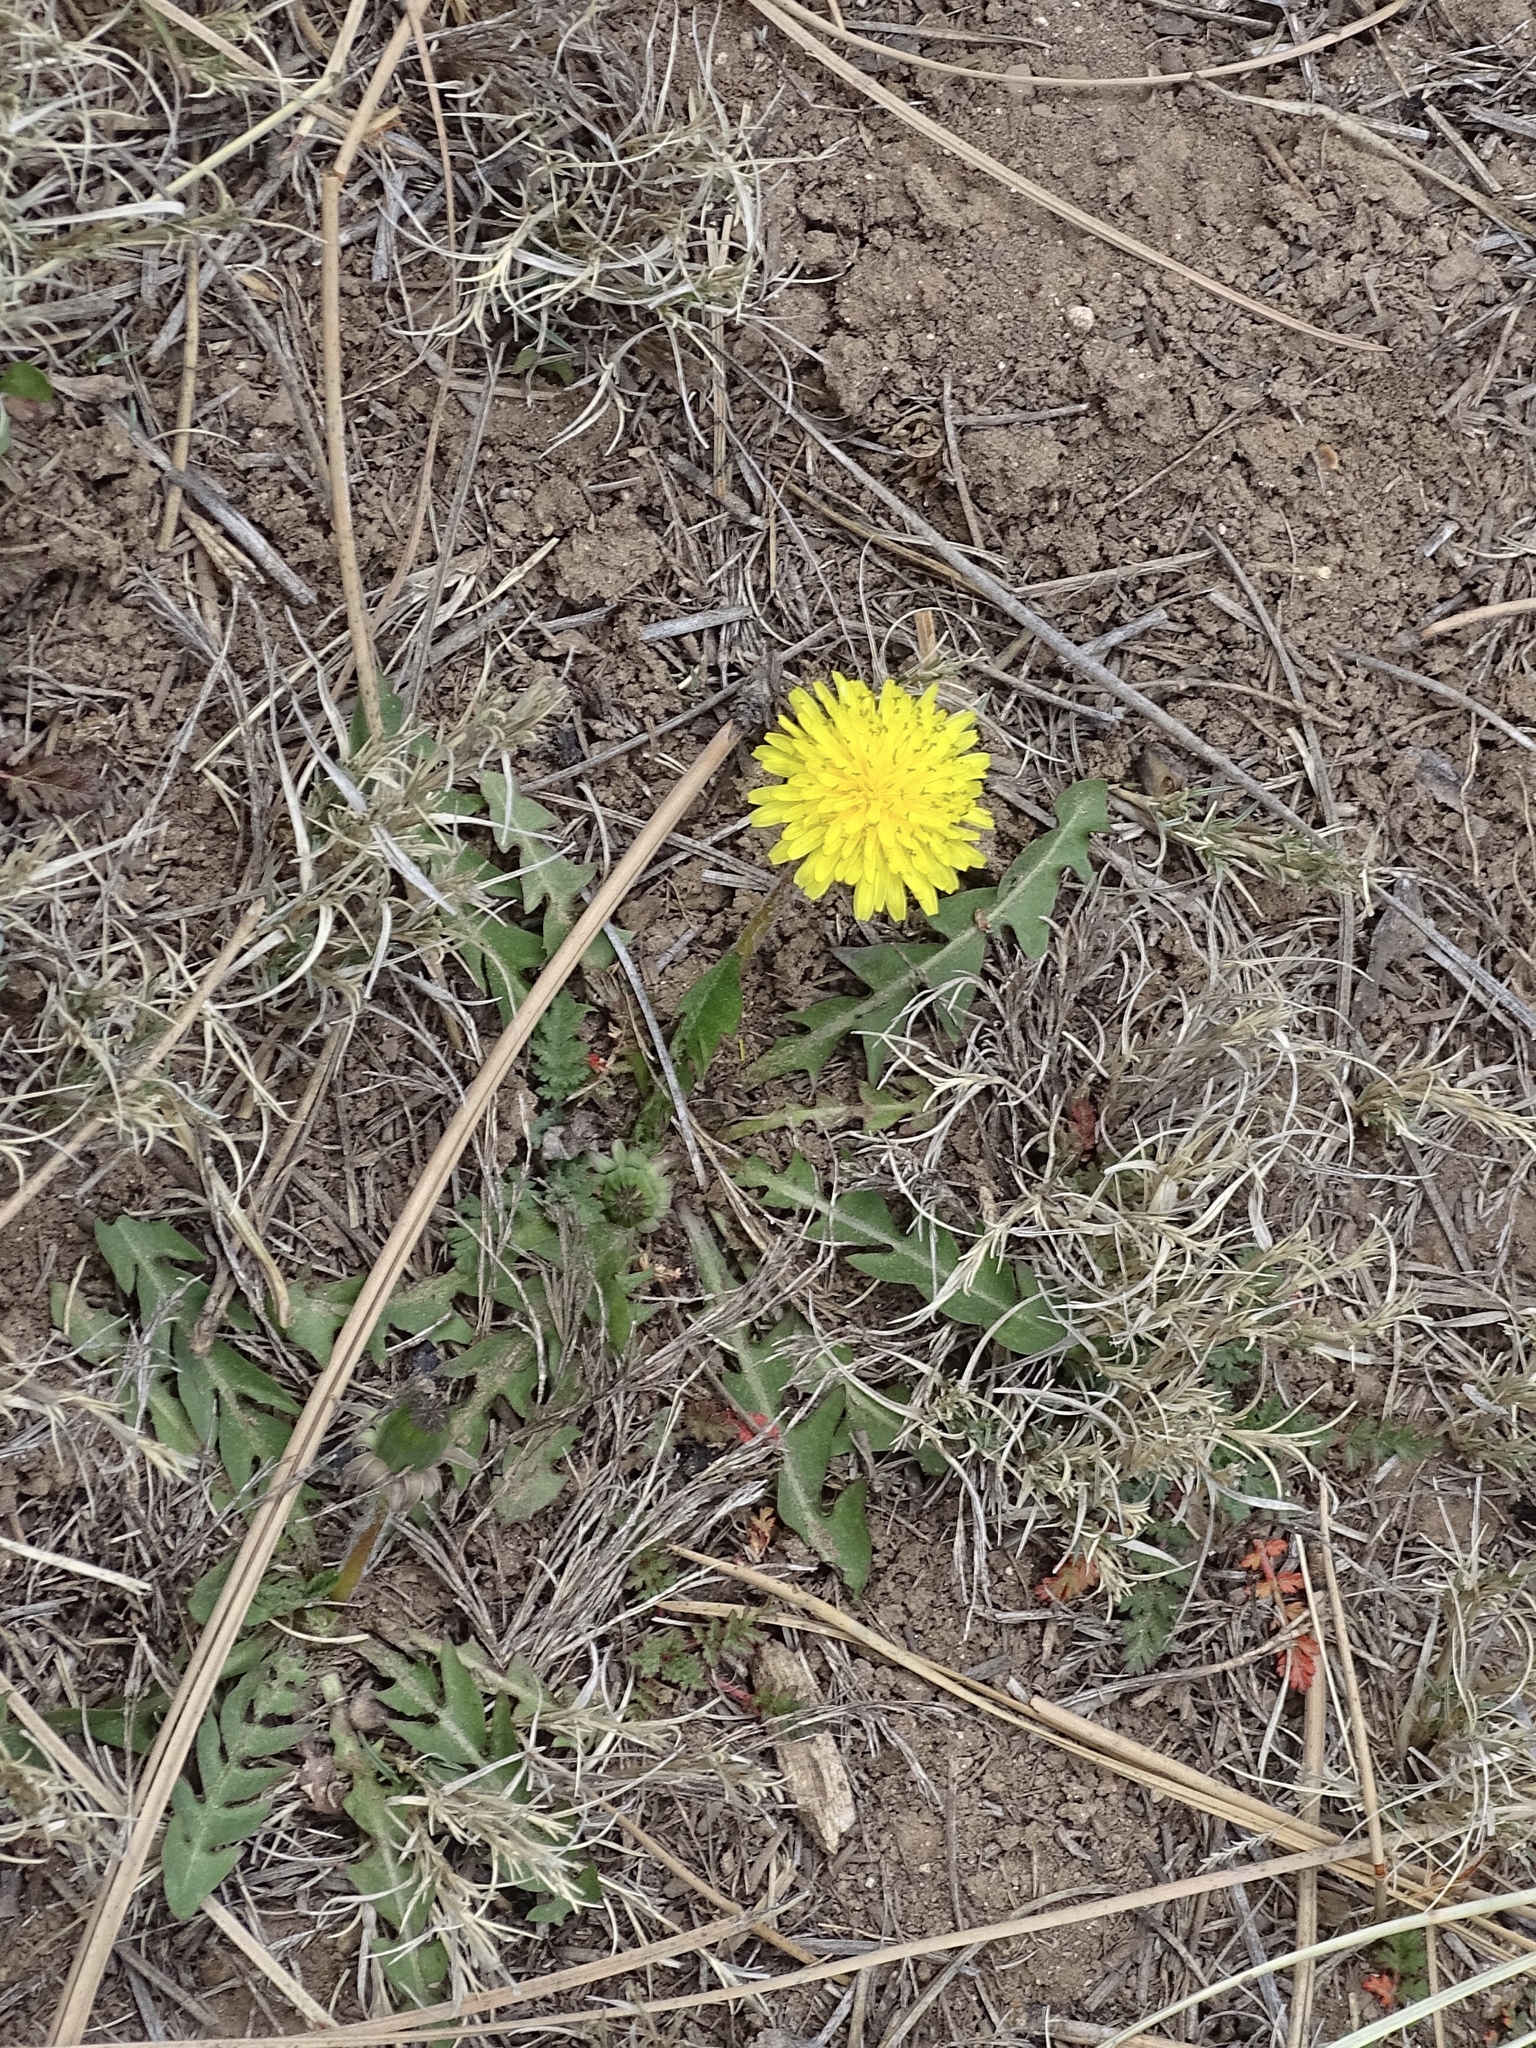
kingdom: Plantae
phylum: Tracheophyta
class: Magnoliopsida
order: Asterales
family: Asteraceae
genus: Taraxacum
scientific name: Taraxacum officinale
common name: Common dandelion
